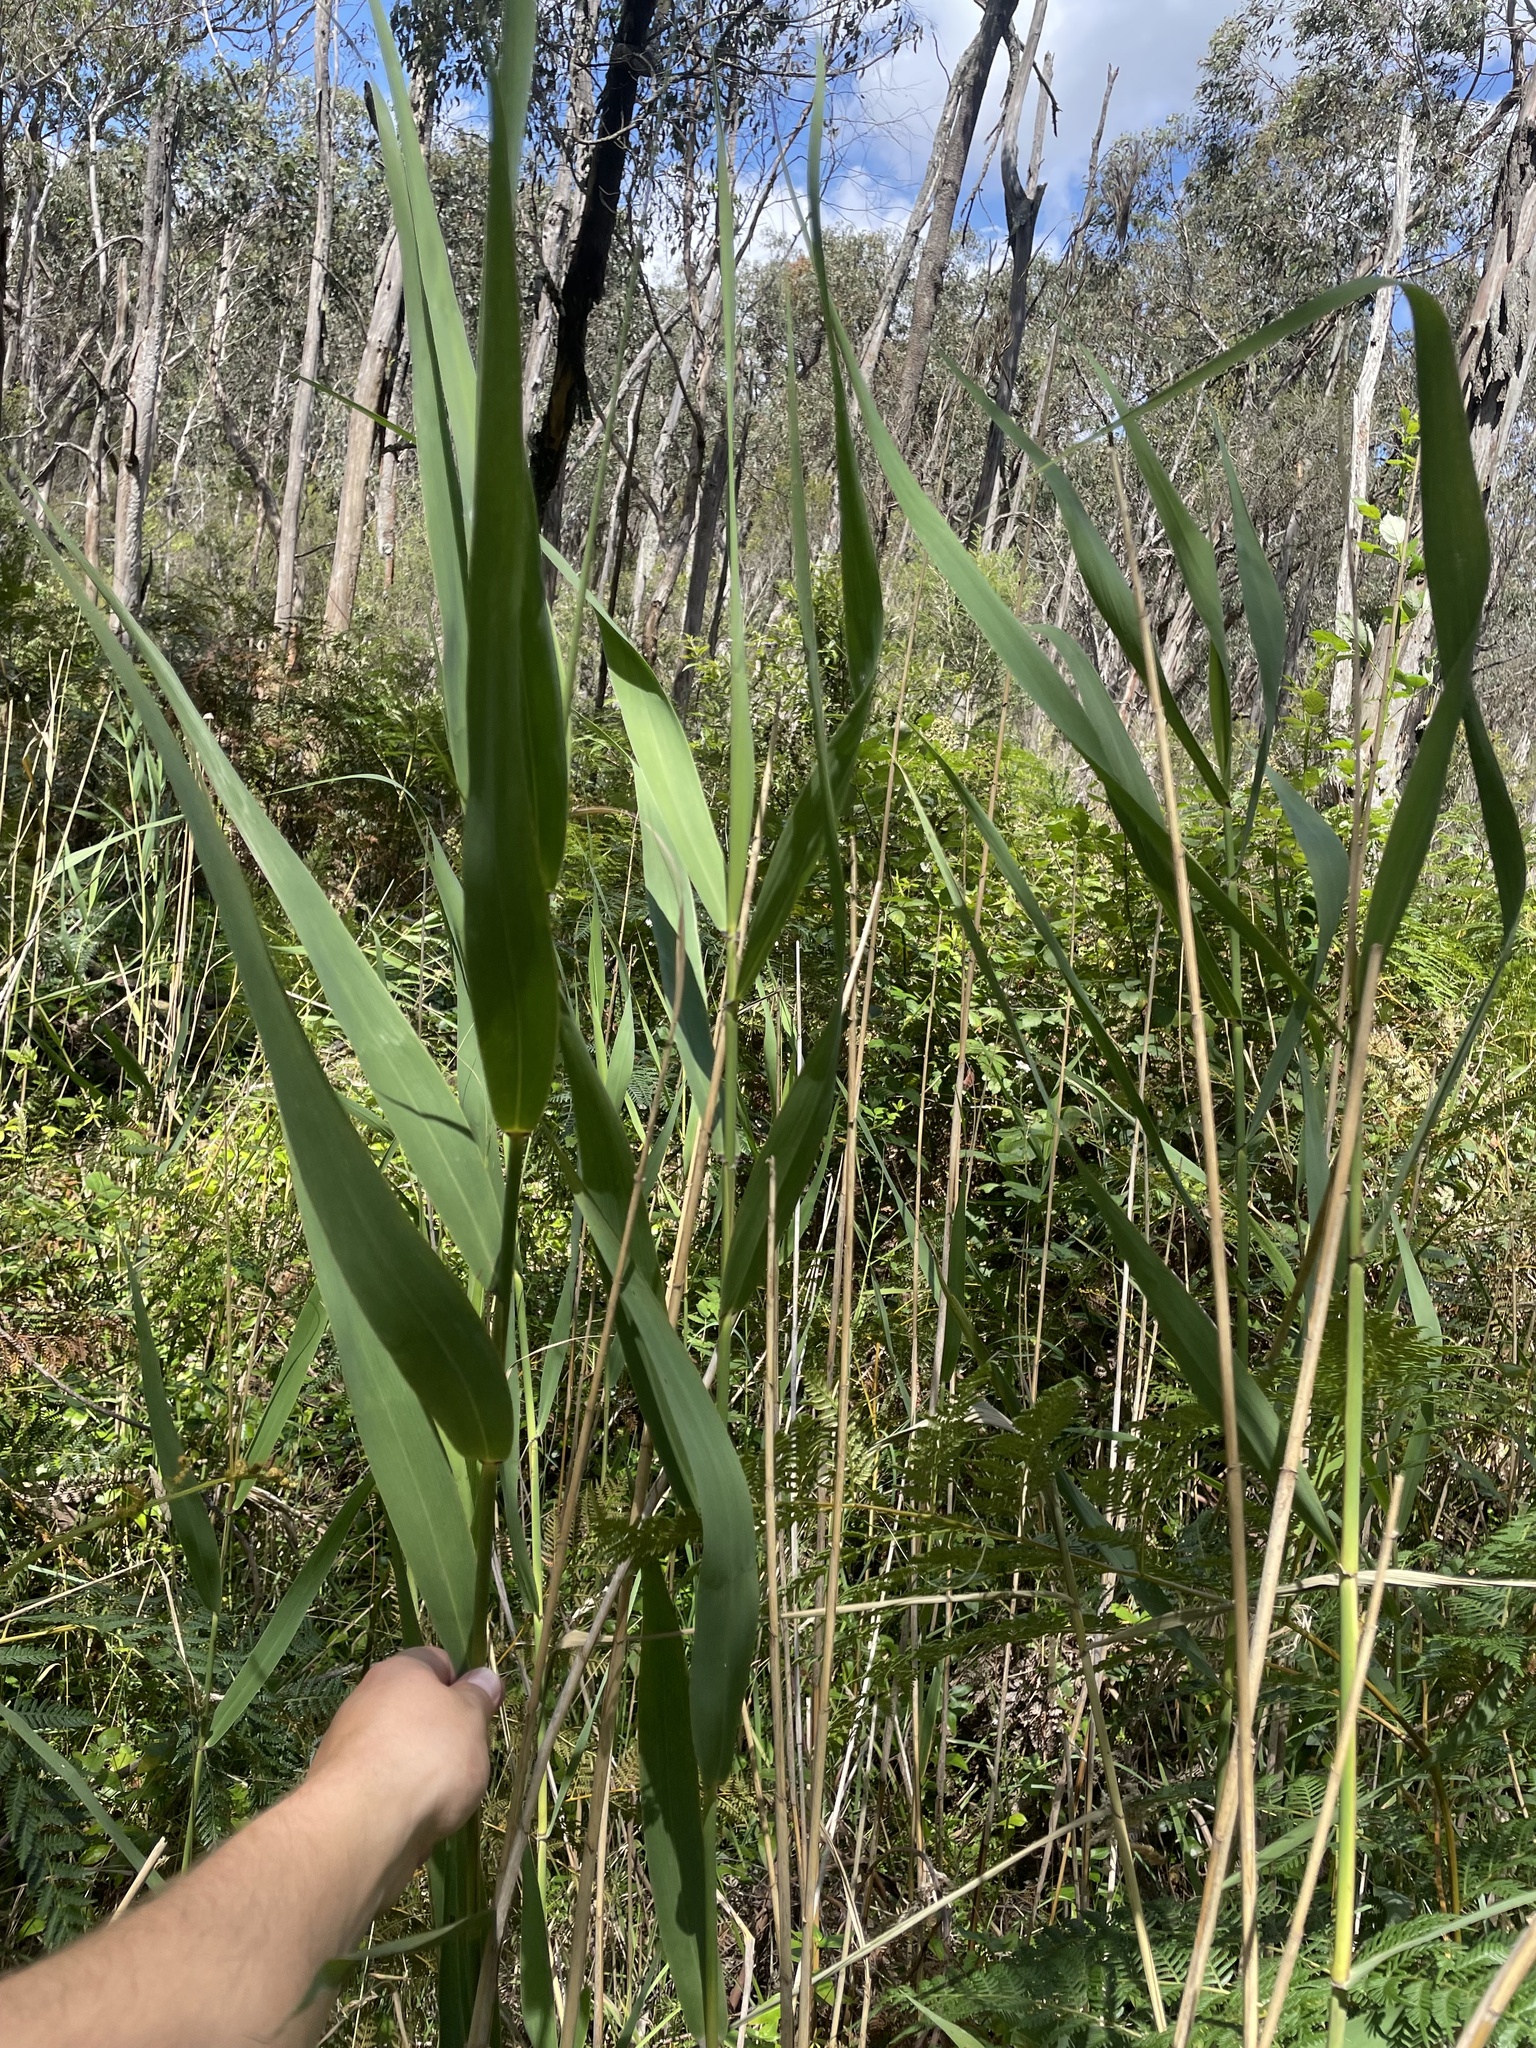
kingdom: Plantae
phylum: Tracheophyta
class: Liliopsida
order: Poales
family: Poaceae
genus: Phragmites
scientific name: Phragmites australis
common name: Common reed
